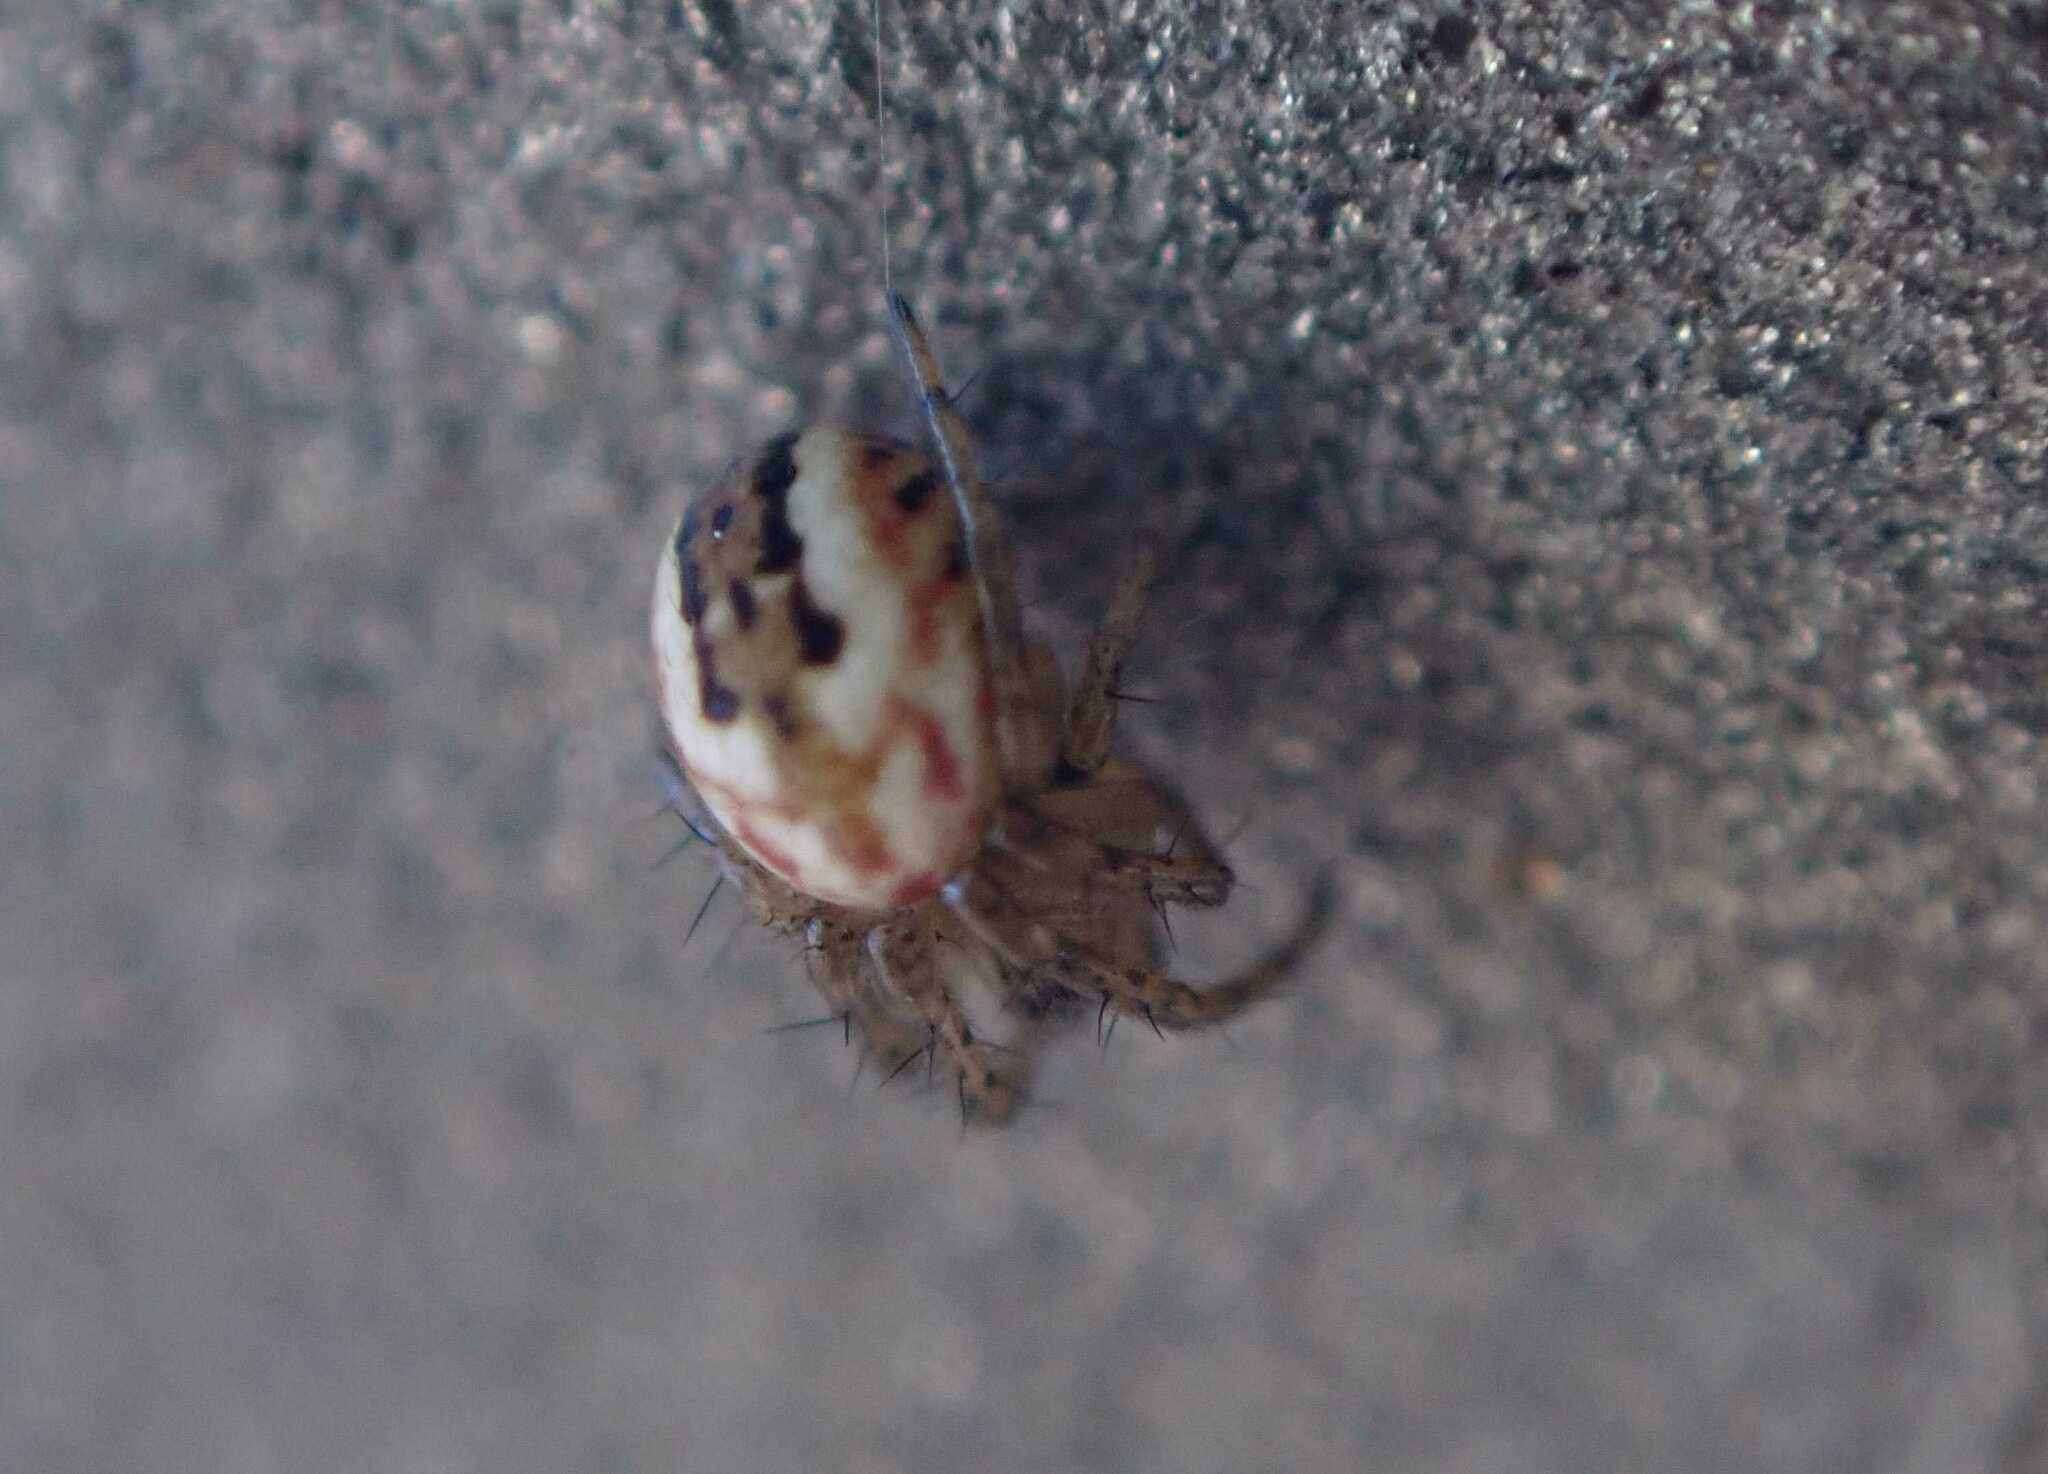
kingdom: Animalia
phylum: Arthropoda
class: Arachnida
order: Araneae
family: Araneidae
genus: Mangora
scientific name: Mangora acalypha
